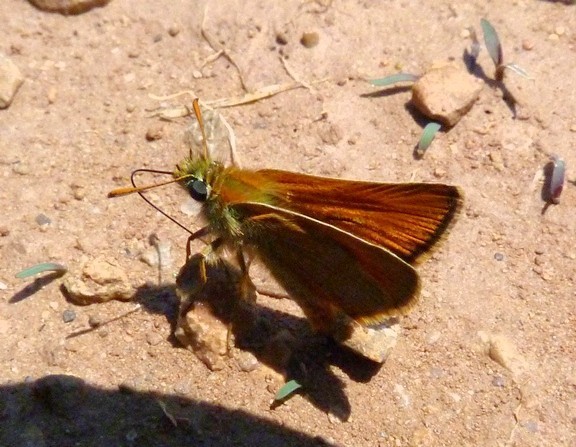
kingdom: Animalia
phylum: Arthropoda
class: Insecta
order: Lepidoptera
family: Hesperiidae
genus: Thymelicus
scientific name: Thymelicus sylvestris
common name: Small skipper
